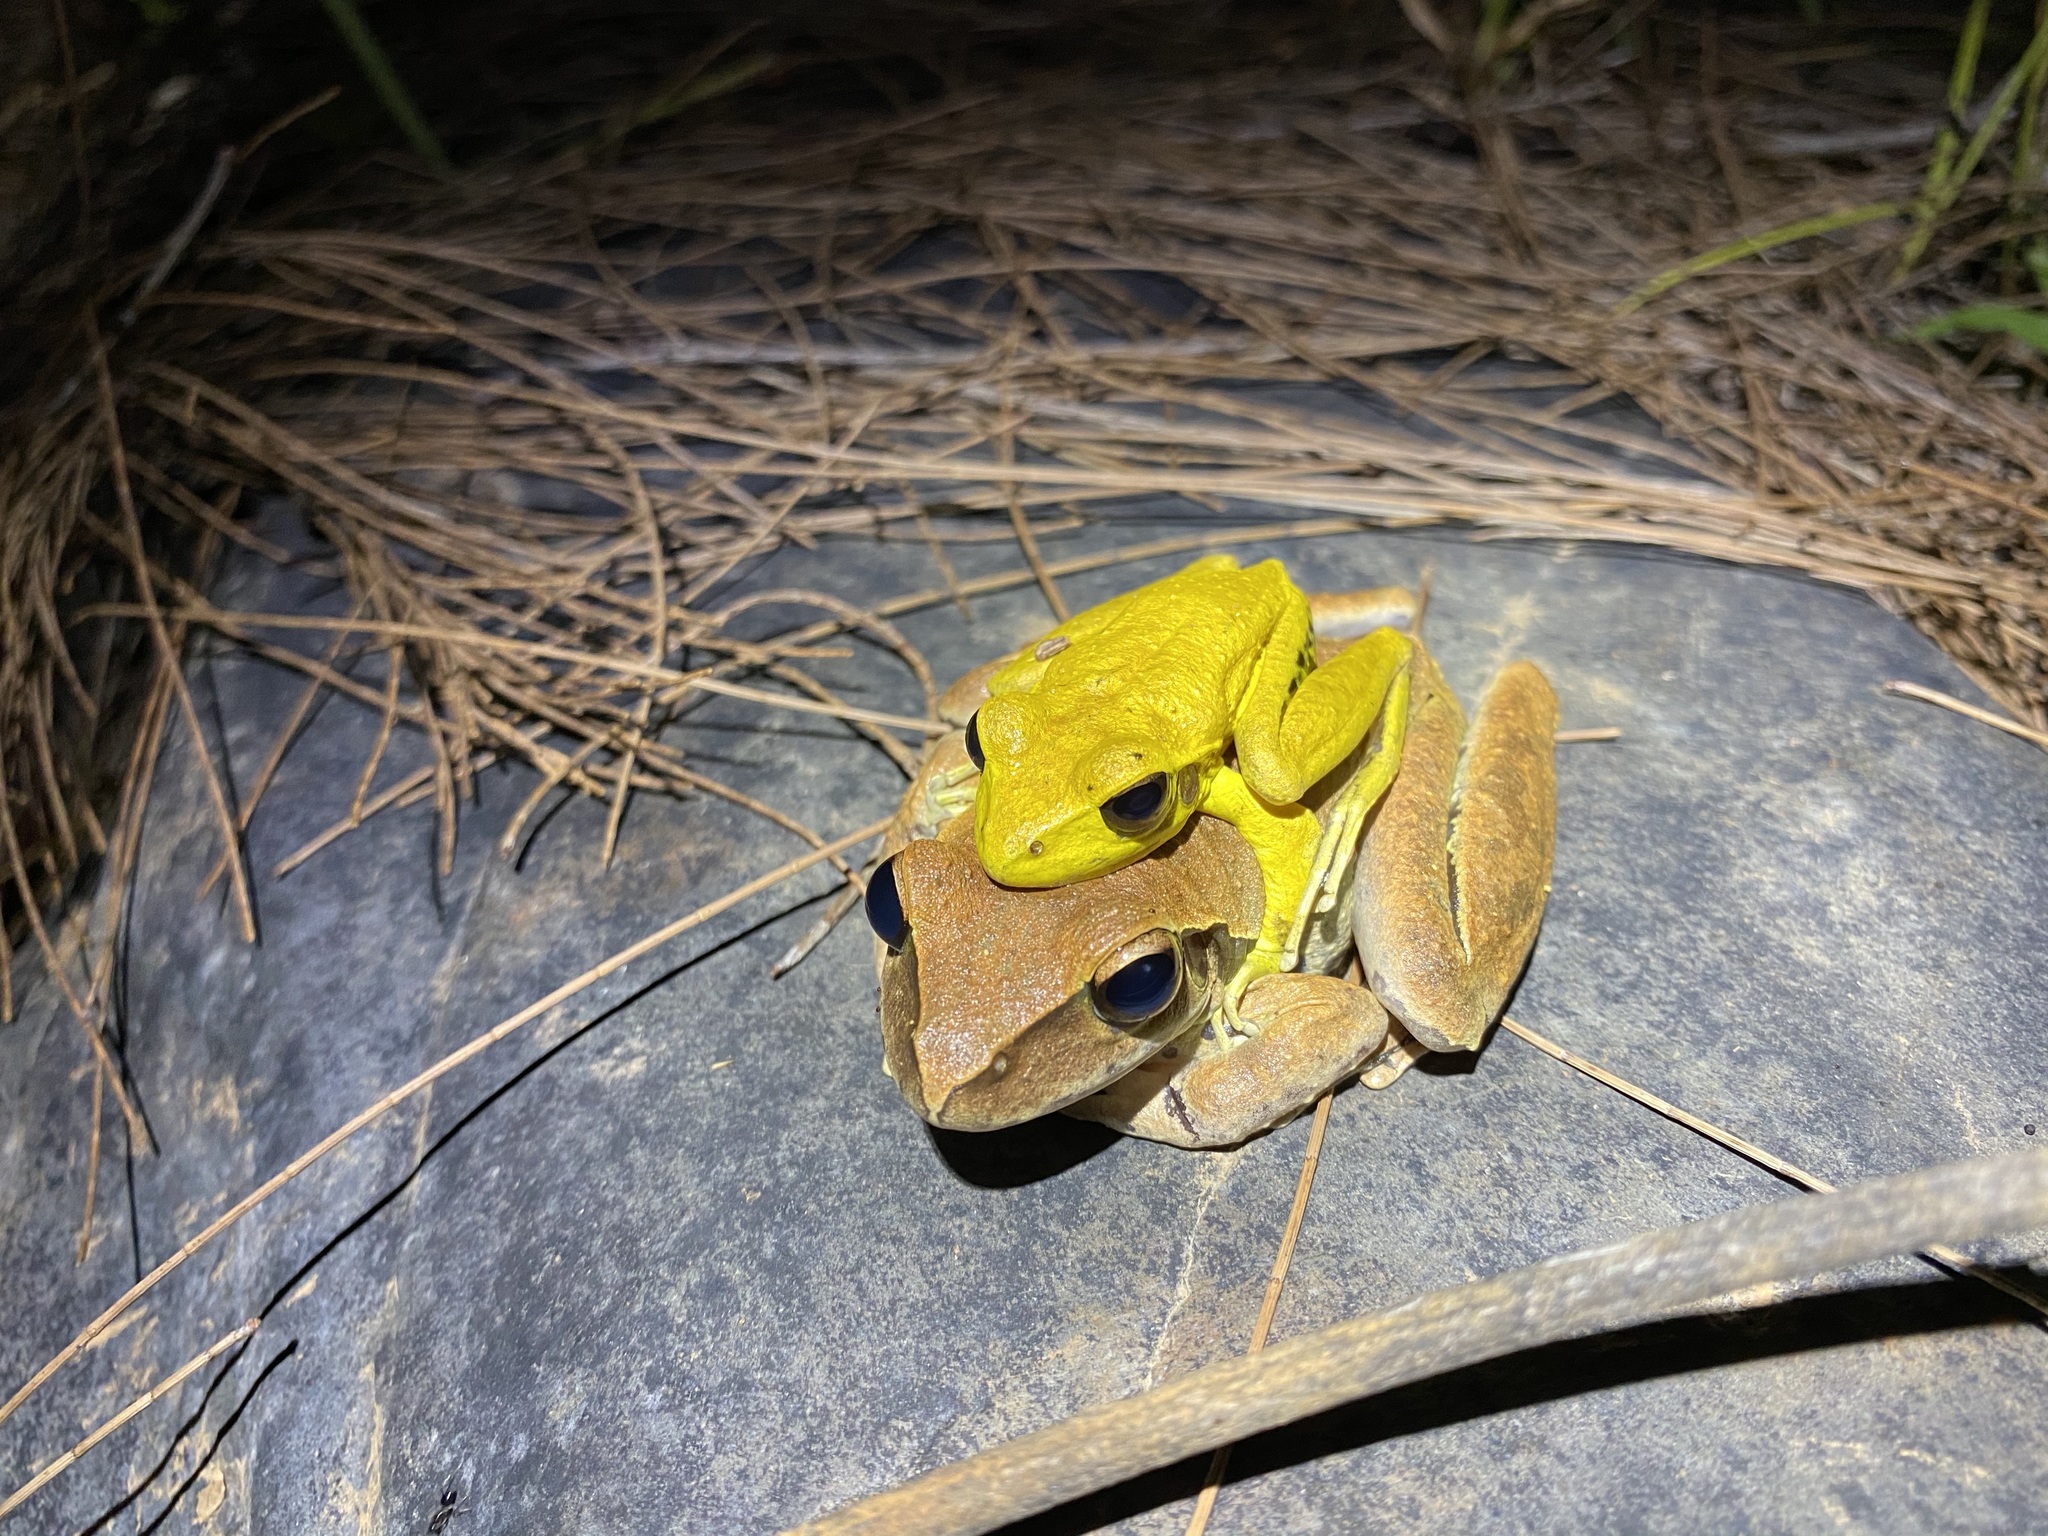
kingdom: Animalia
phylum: Chordata
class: Amphibia
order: Anura
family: Hylidae
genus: Ranoidea
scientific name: Ranoidea
